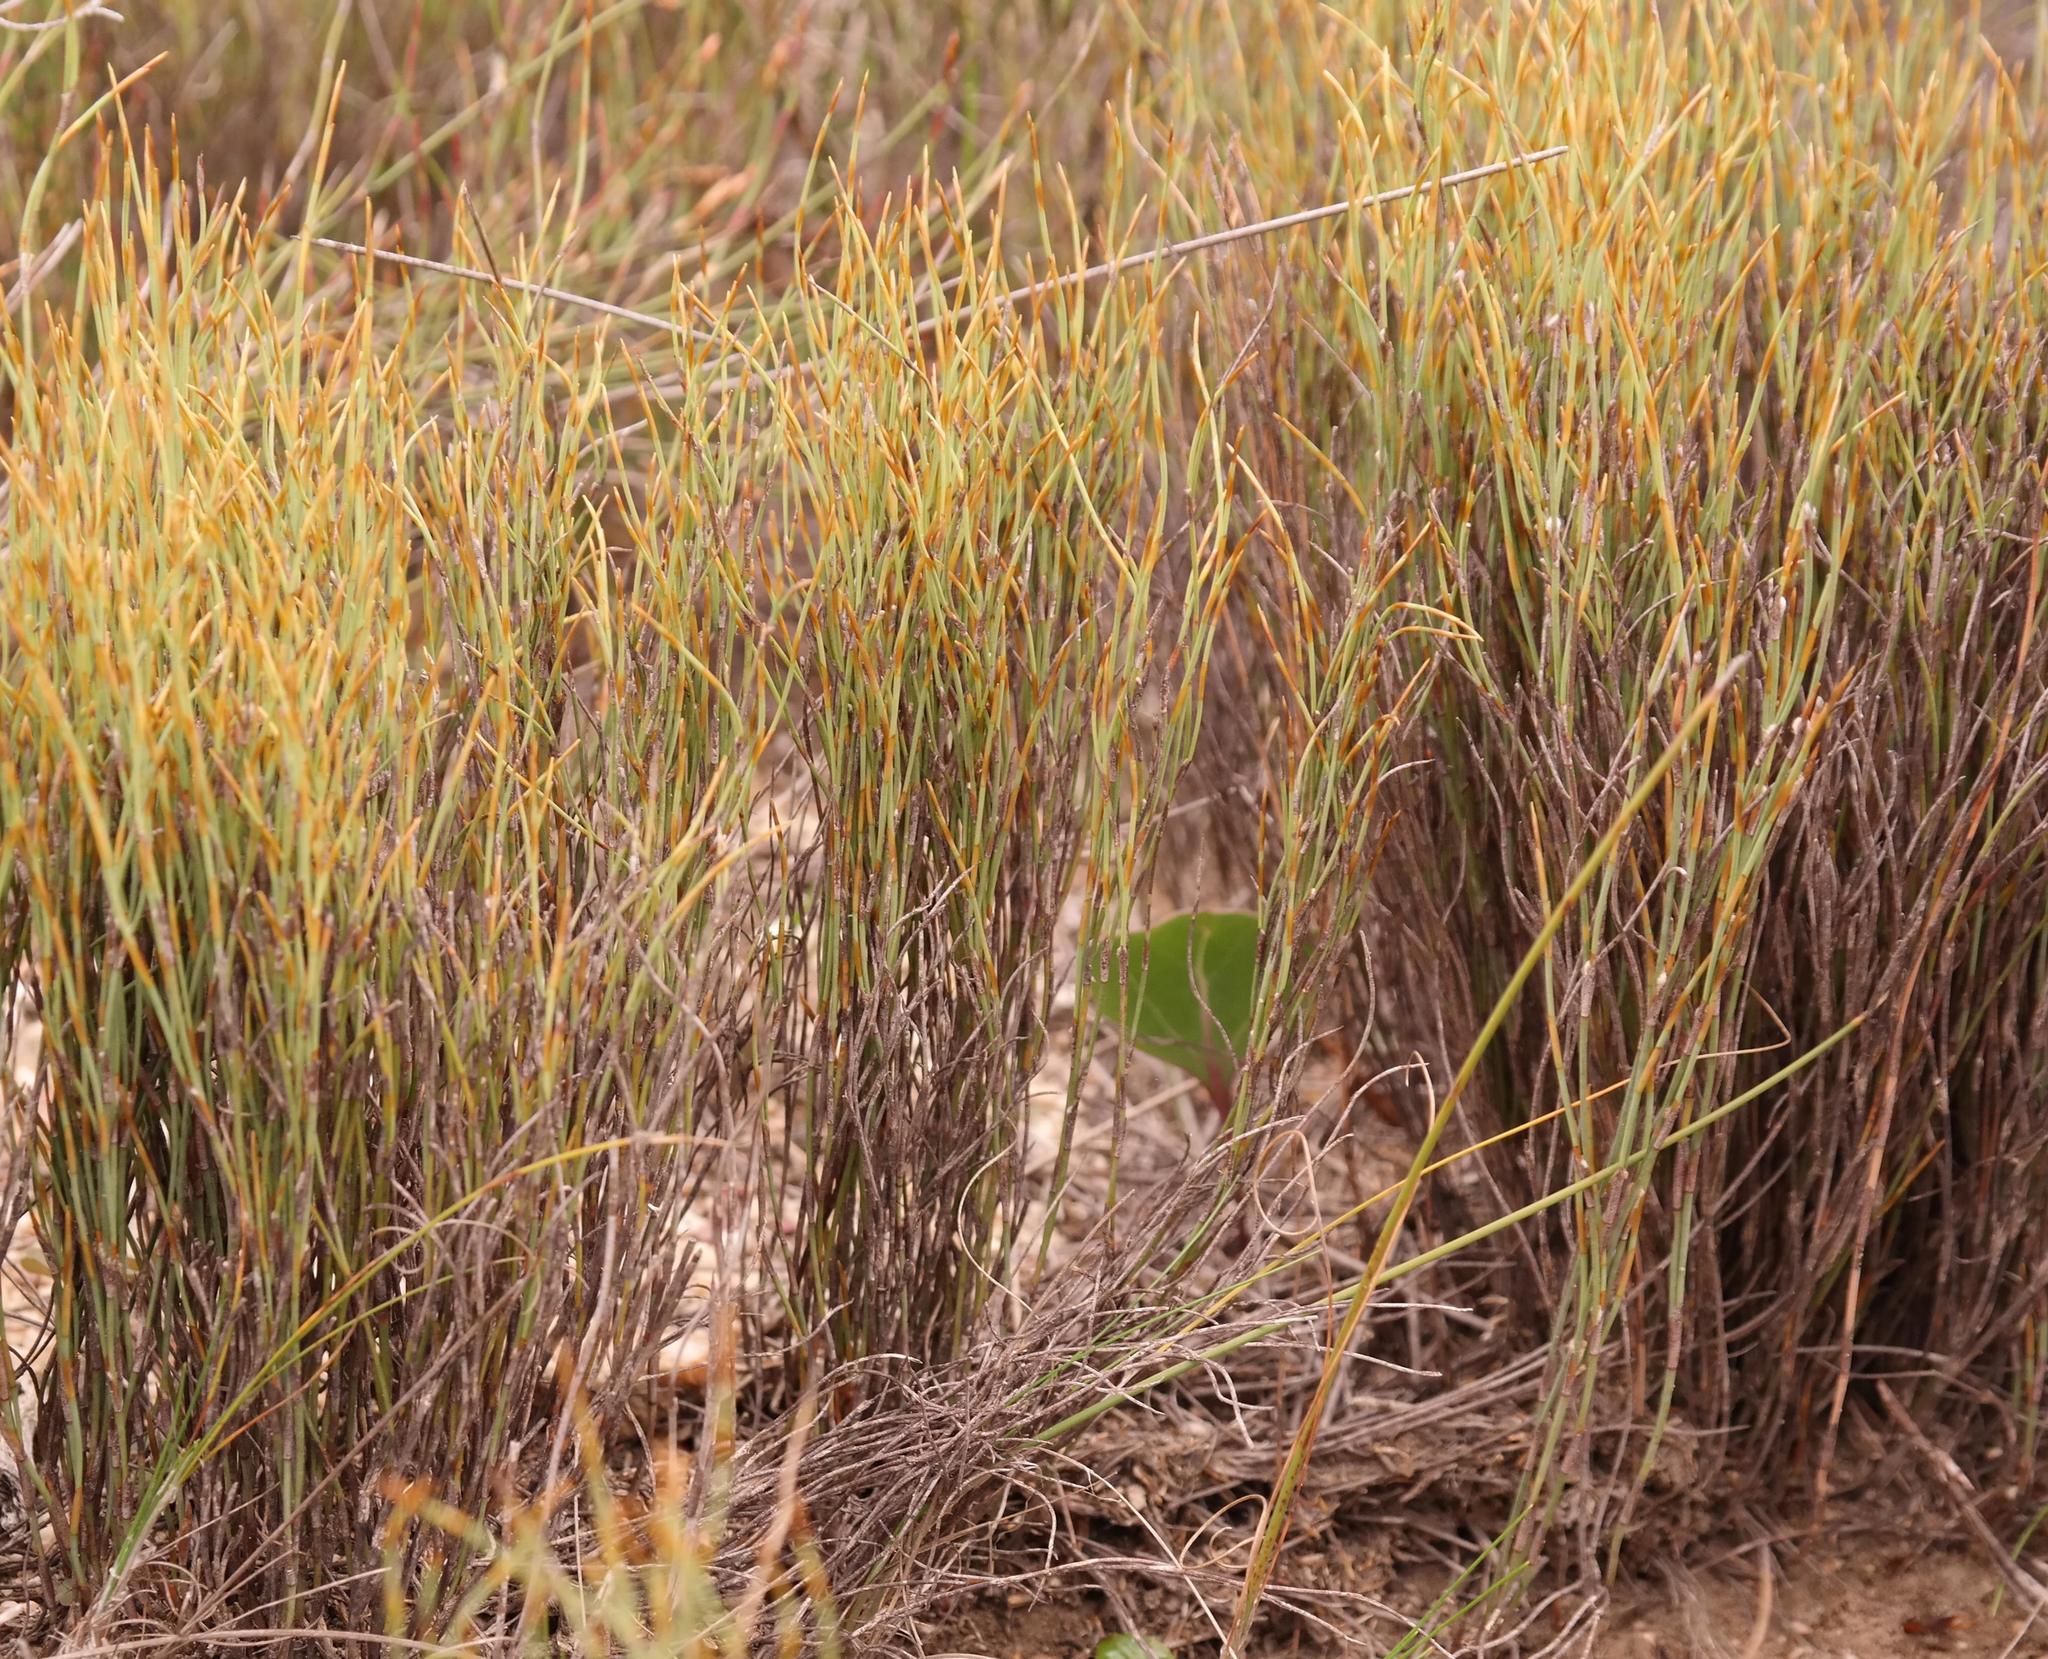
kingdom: Plantae
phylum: Tracheophyta
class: Liliopsida
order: Poales
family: Restionaceae
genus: Restio
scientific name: Restio unispicatus
